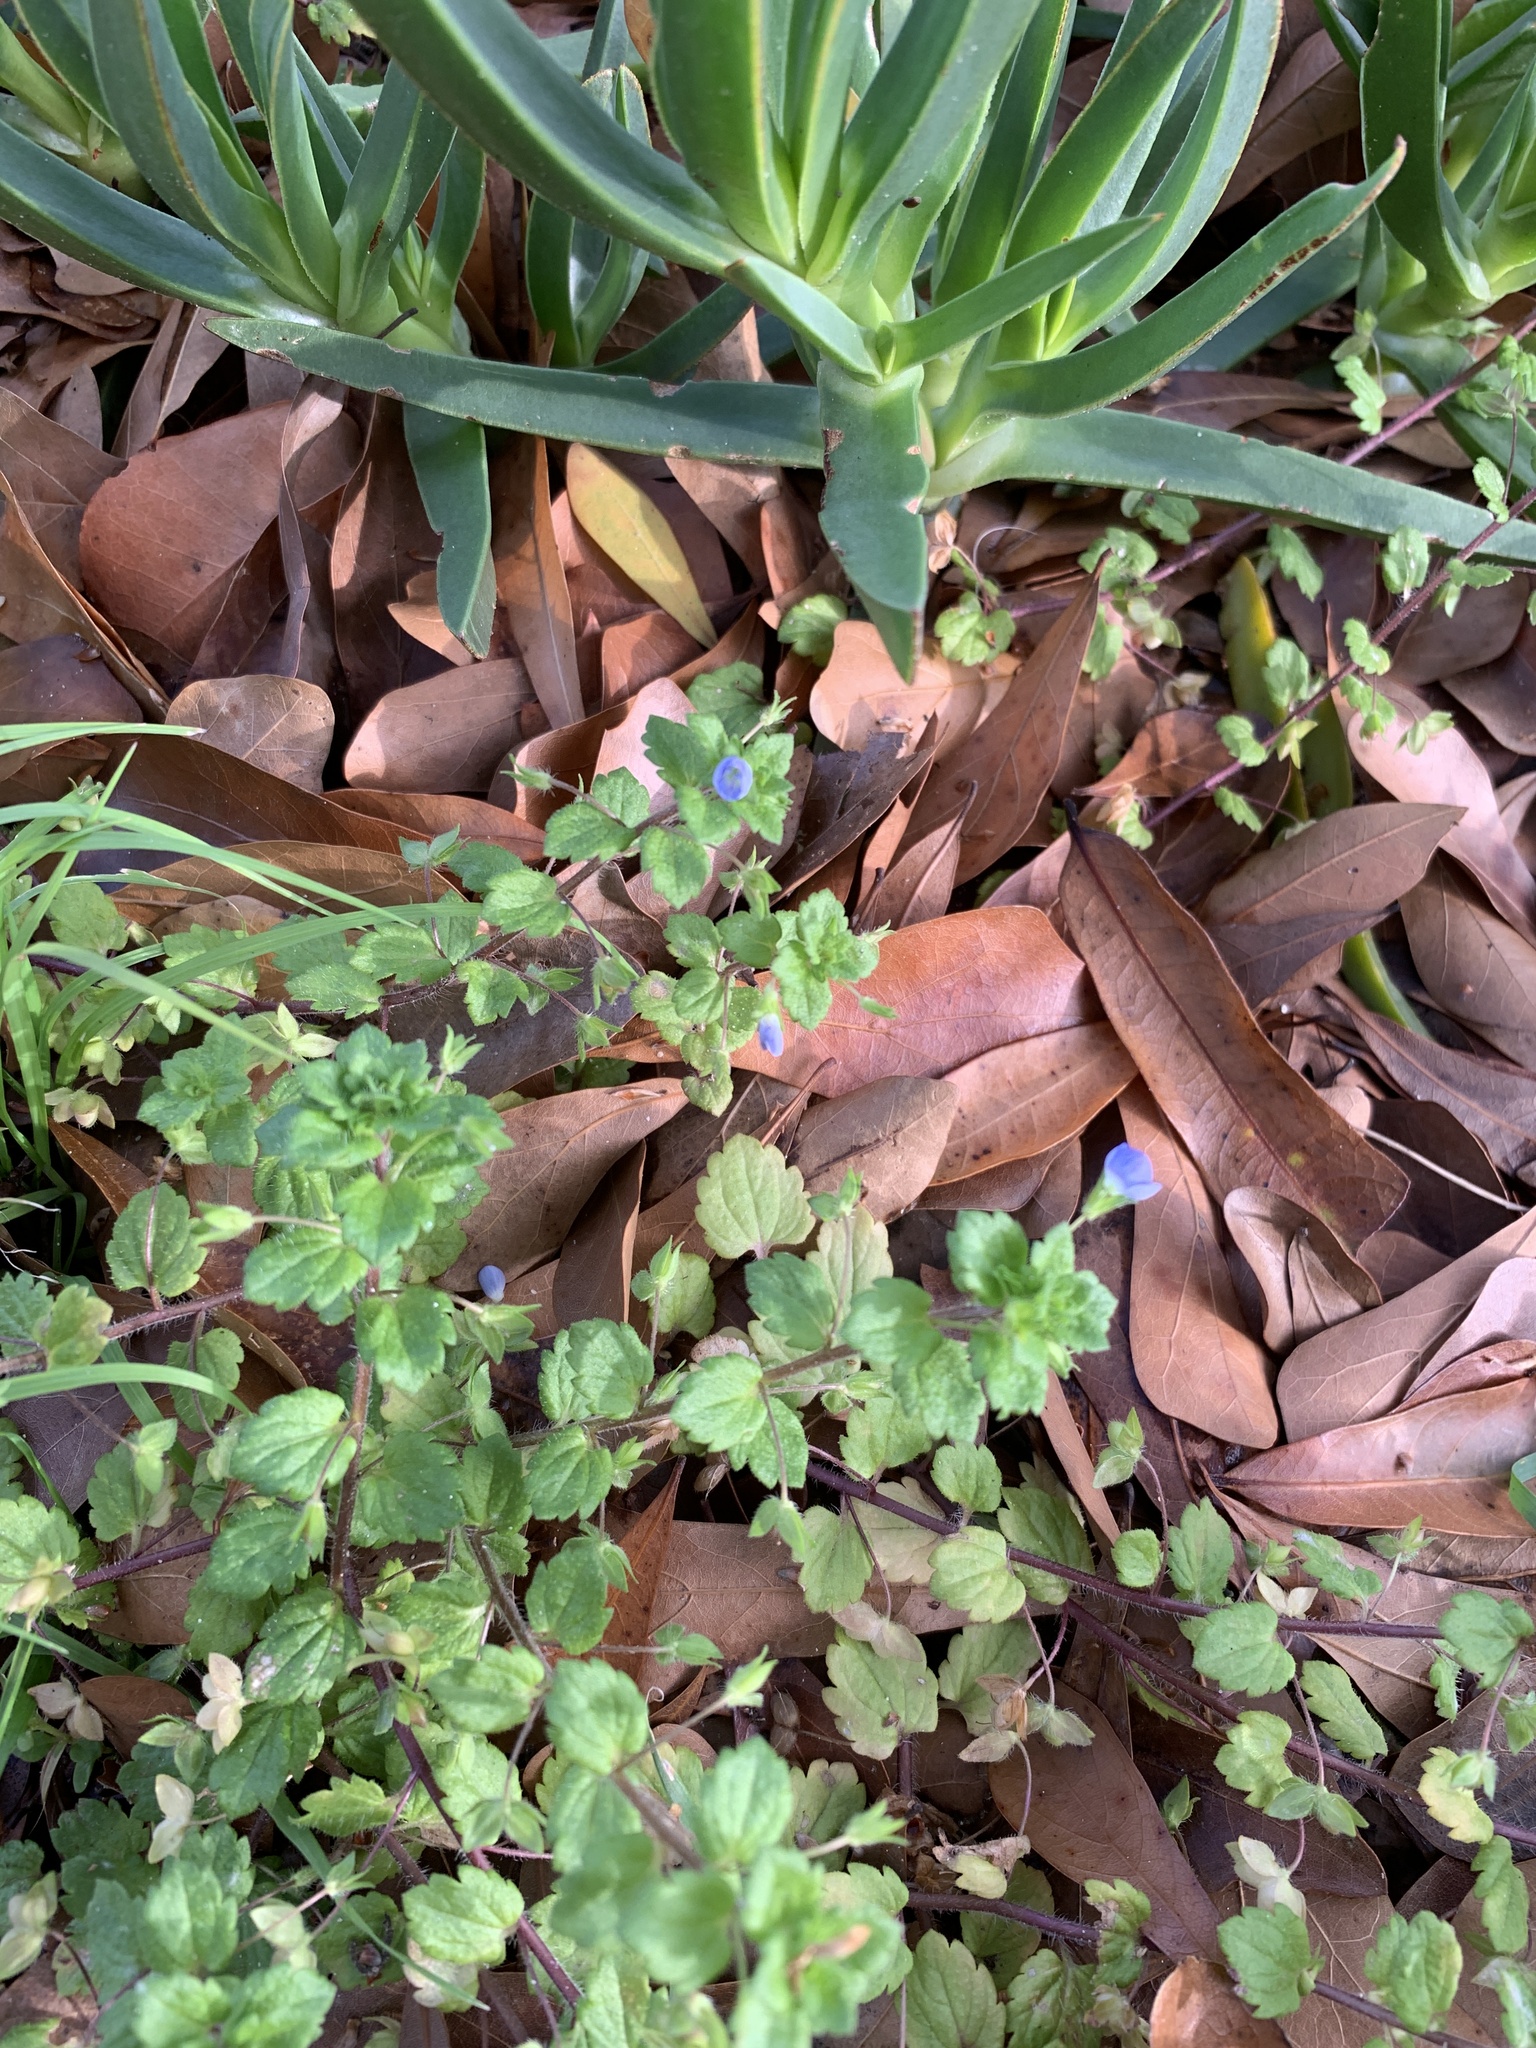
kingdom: Plantae
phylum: Tracheophyta
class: Magnoliopsida
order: Lamiales
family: Plantaginaceae
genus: Veronica
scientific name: Veronica persica
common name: Common field-speedwell
